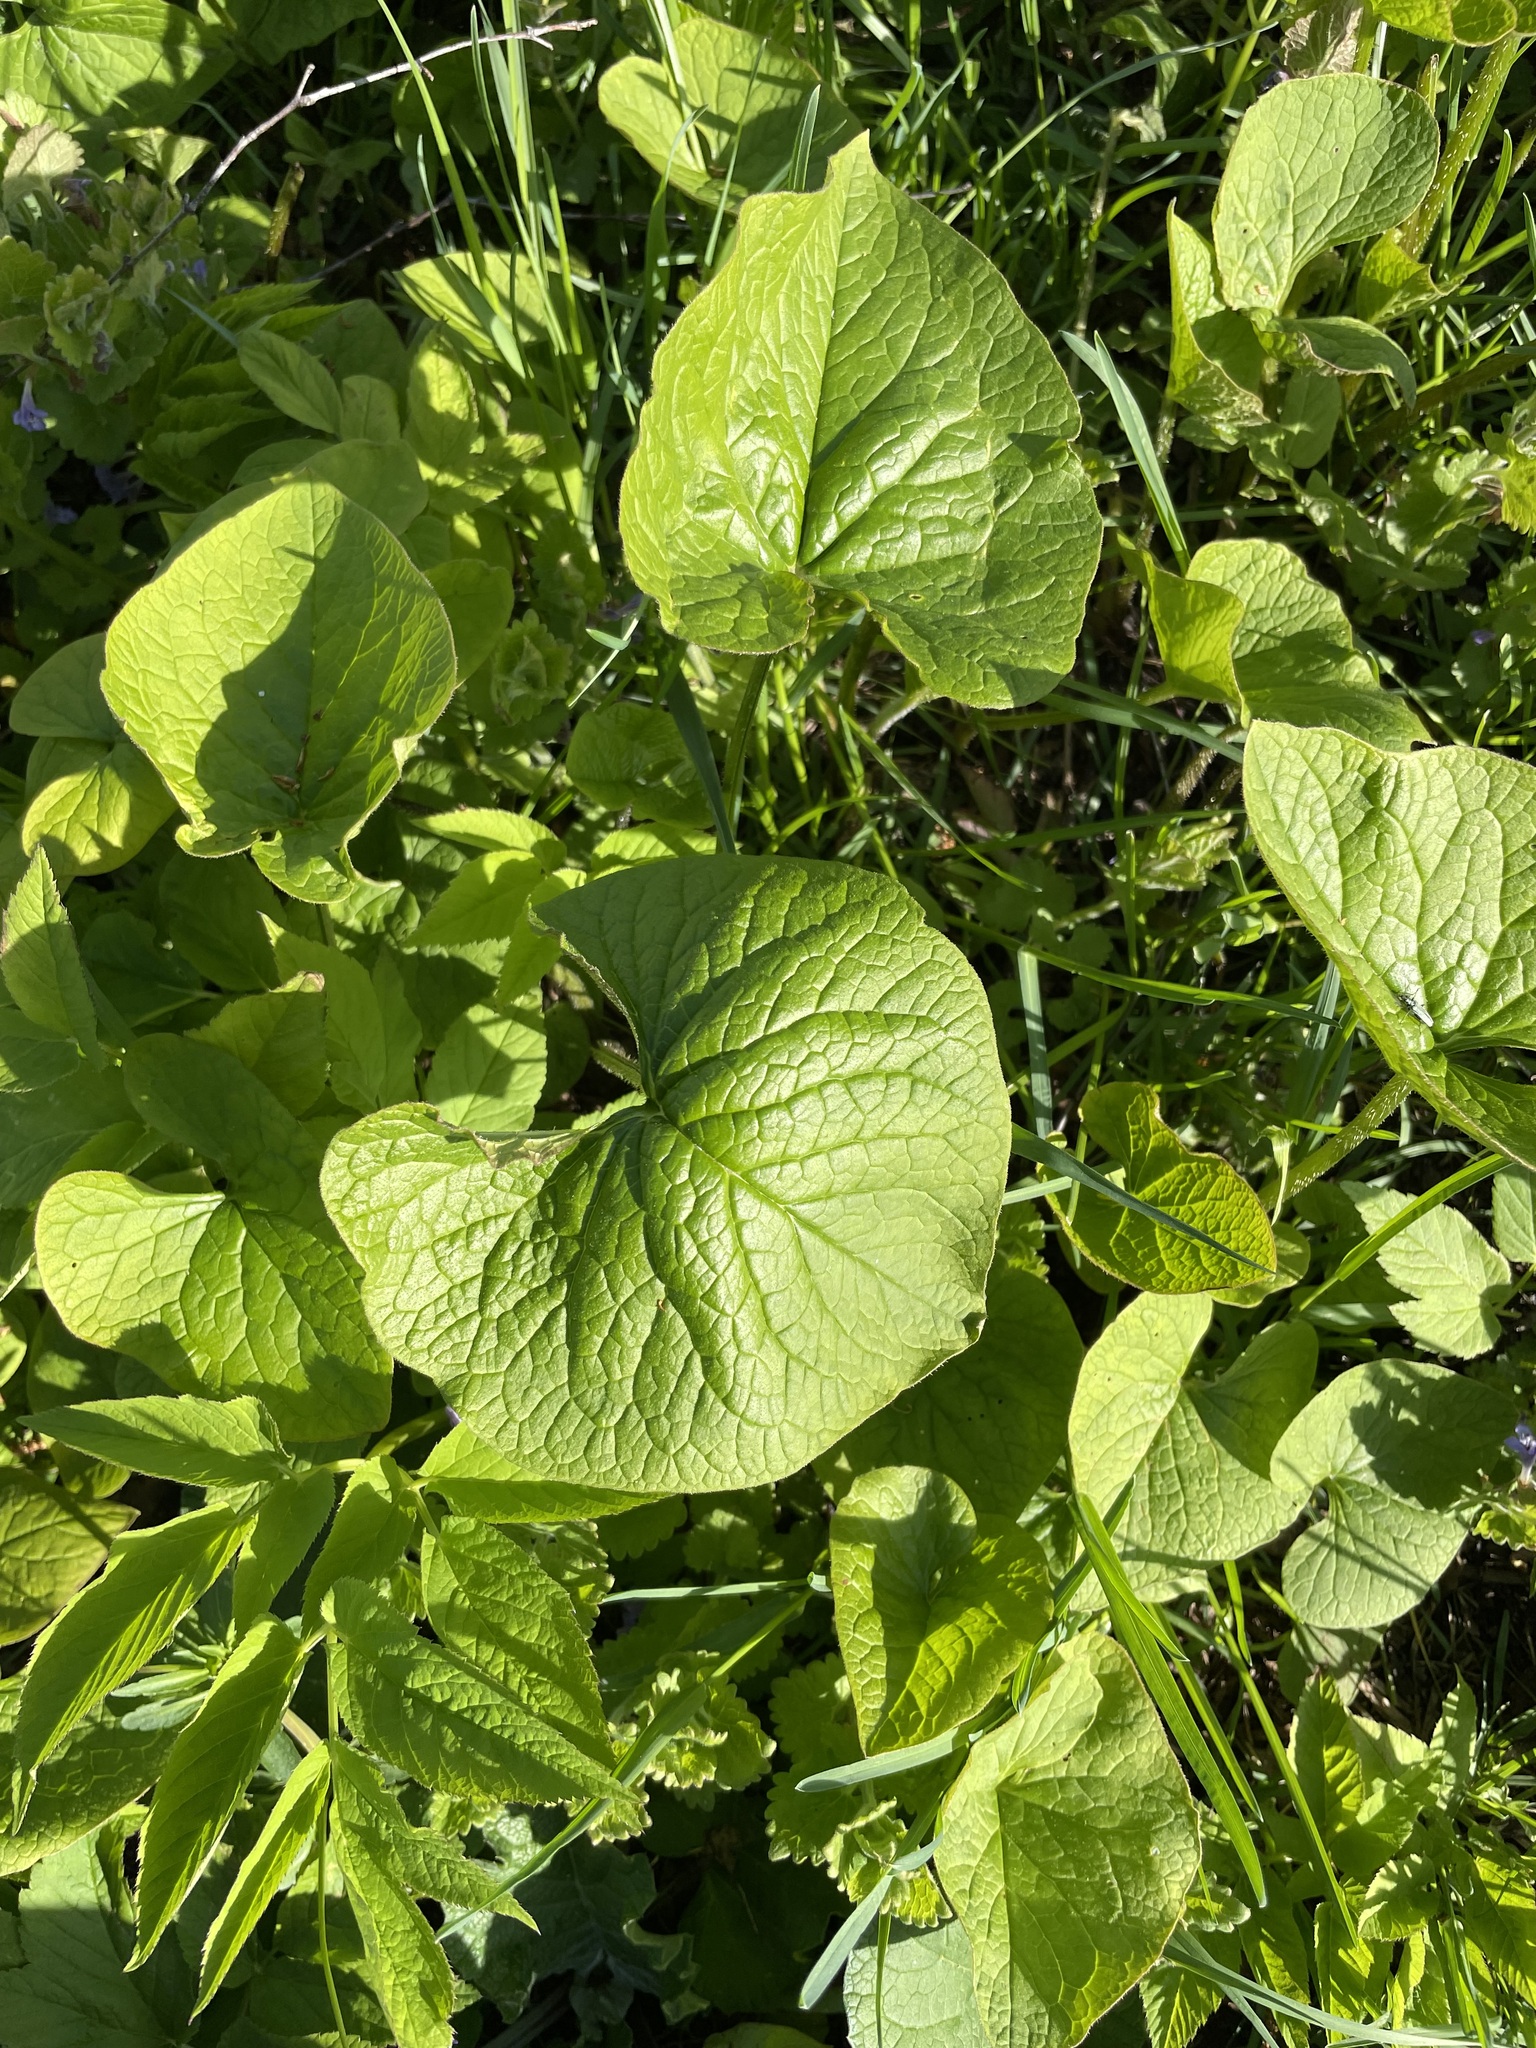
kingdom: Plantae
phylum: Tracheophyta
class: Magnoliopsida
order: Boraginales
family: Boraginaceae
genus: Brunnera
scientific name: Brunnera sibirica
